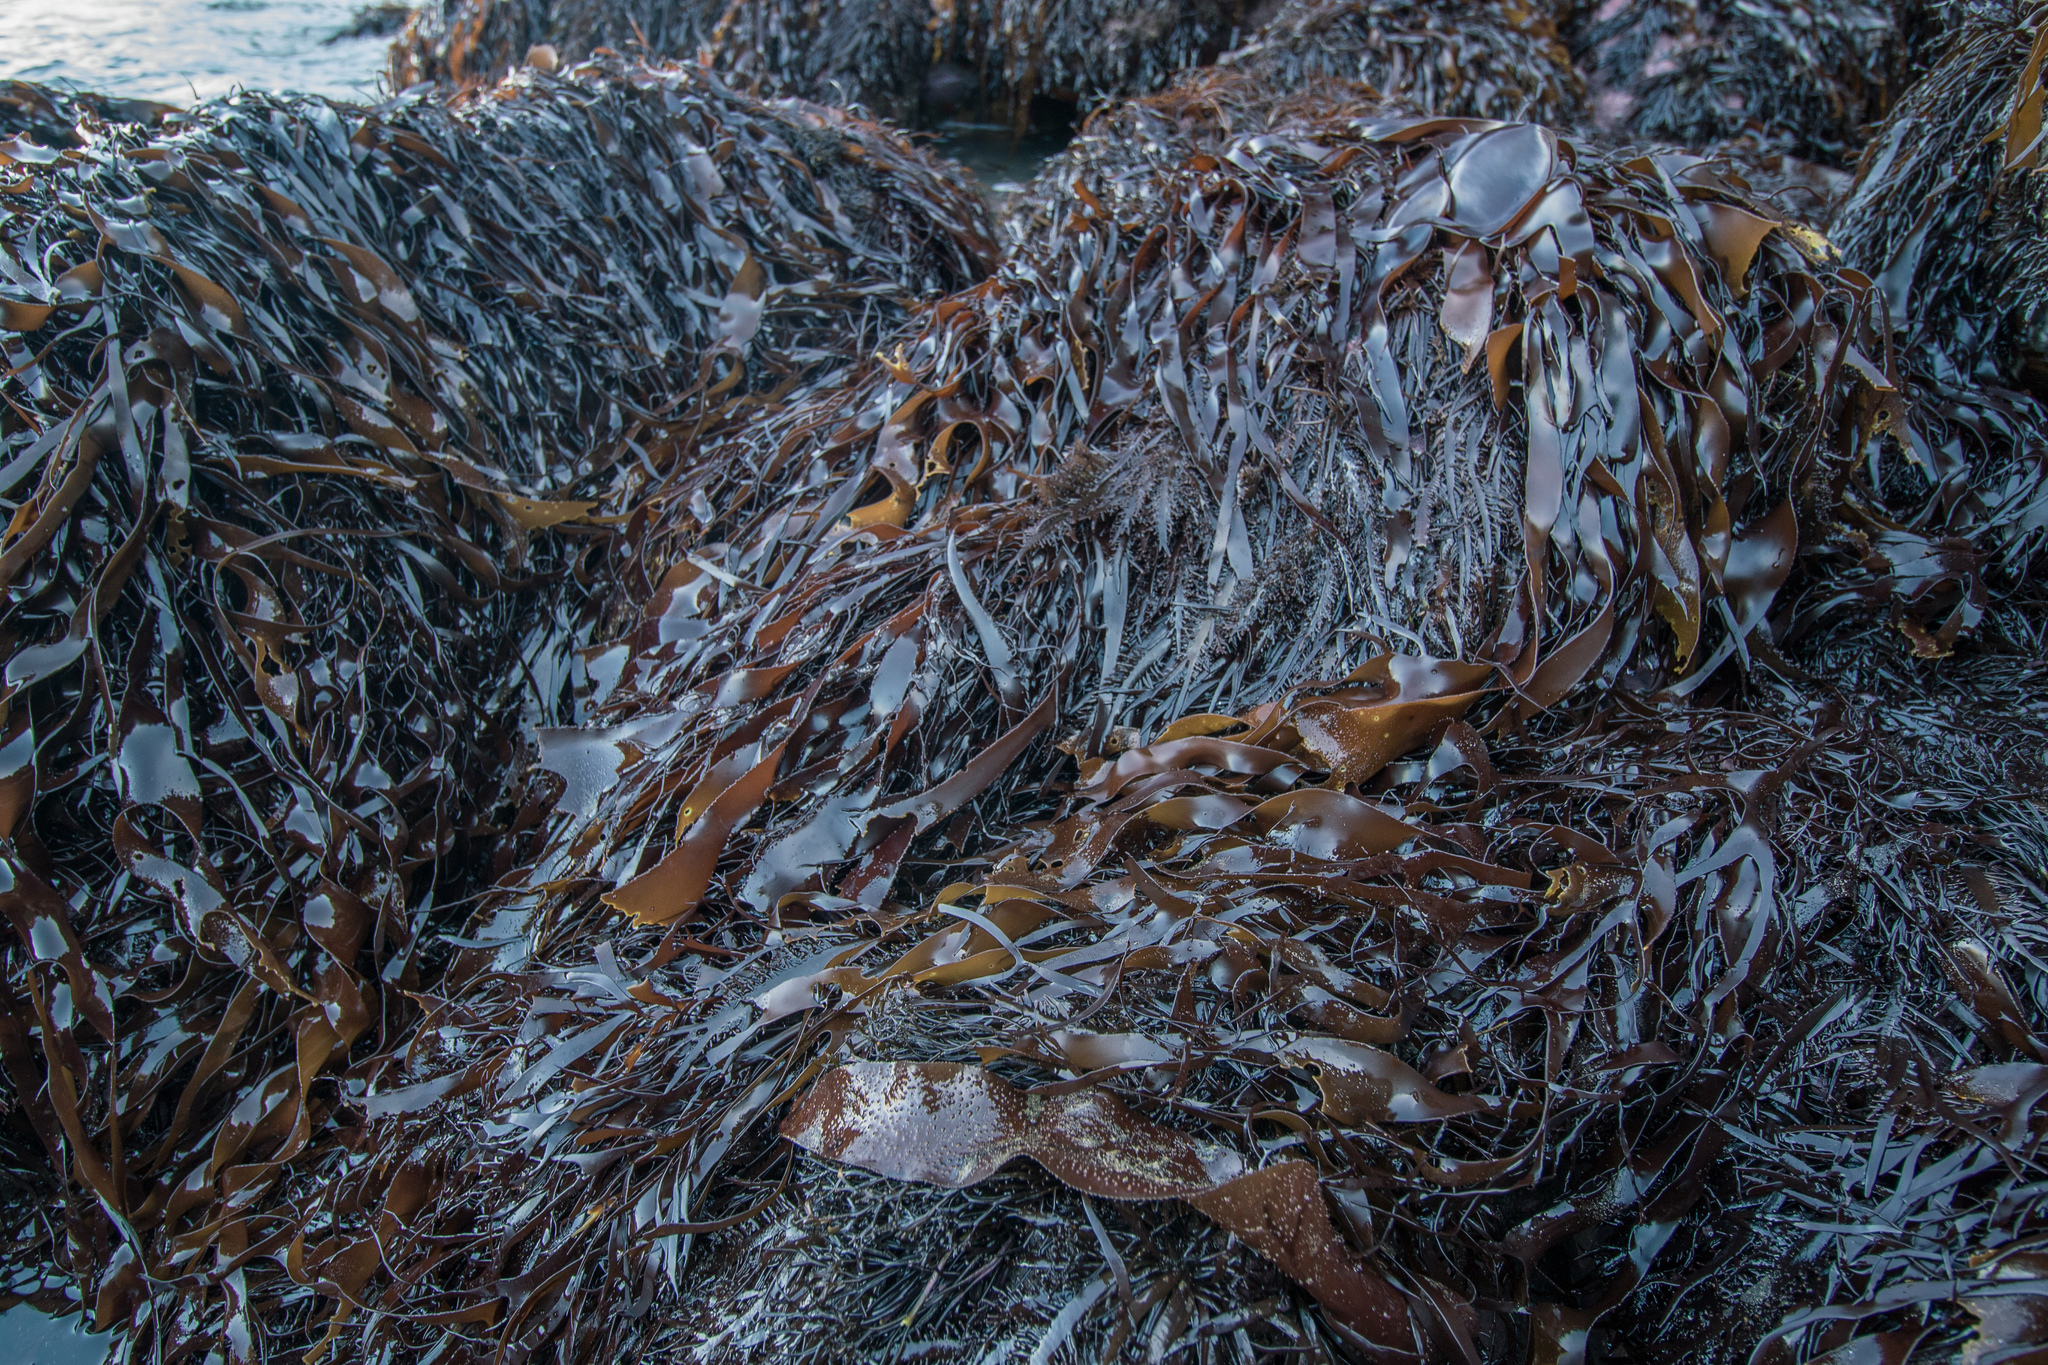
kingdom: Plantae
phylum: Rhodophyta
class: Florideophyceae
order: Halymeniales
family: Halymeniaceae
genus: Pachymenia
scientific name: Pachymenia lusoria
